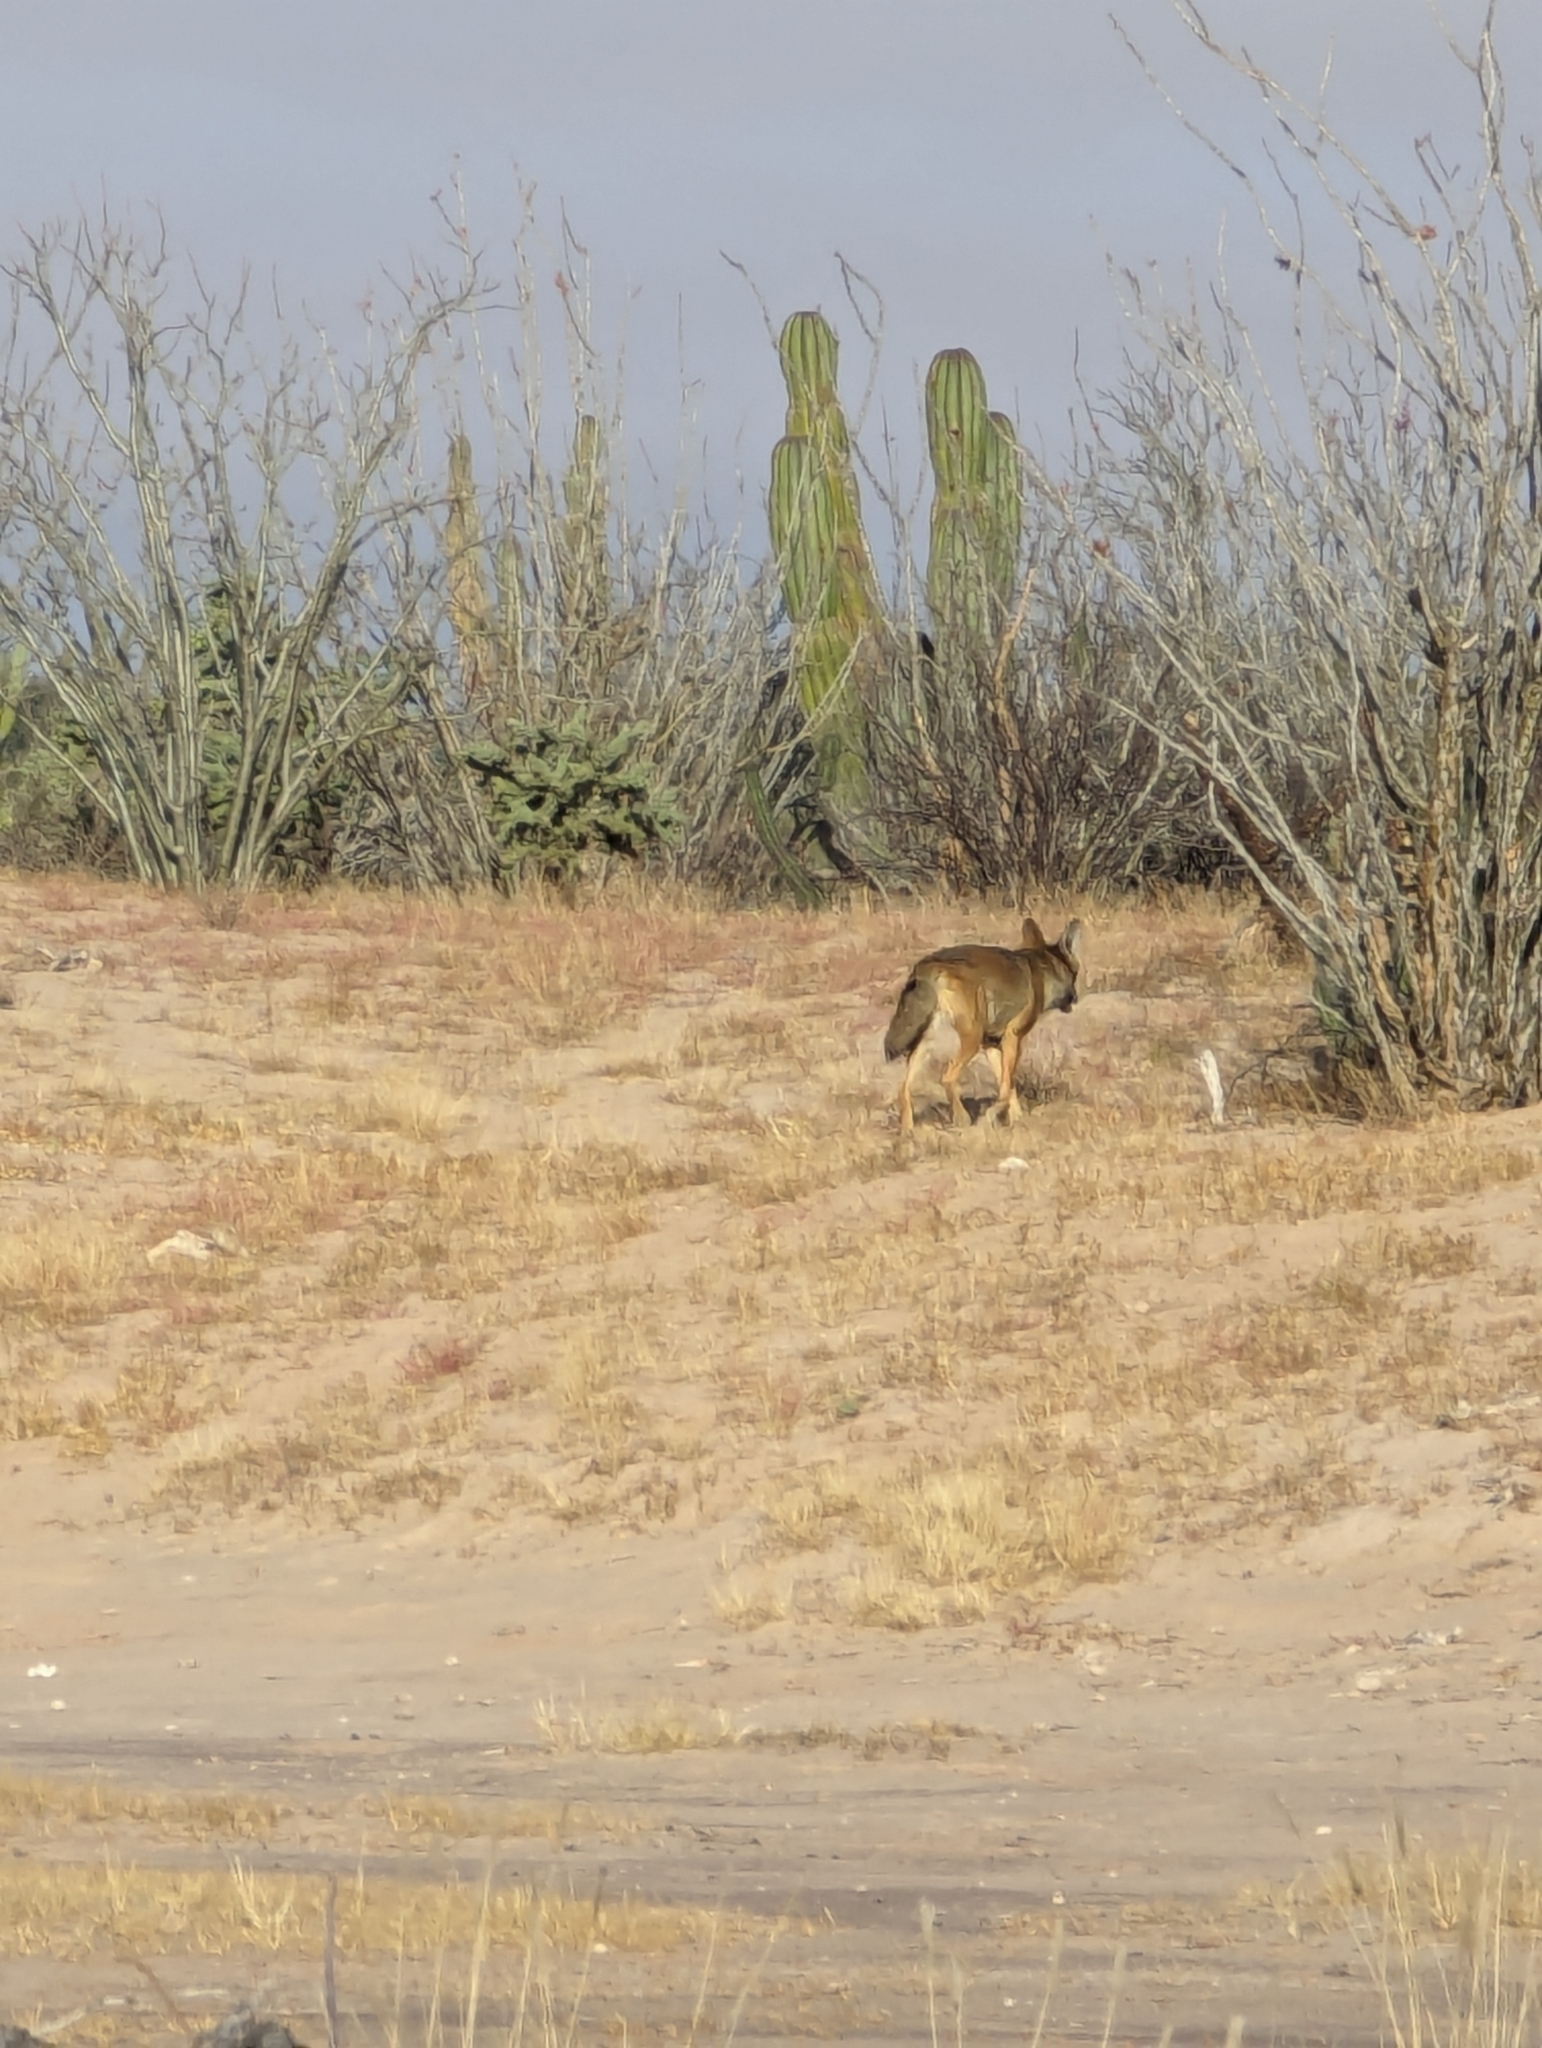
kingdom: Animalia
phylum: Chordata
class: Mammalia
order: Carnivora
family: Canidae
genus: Canis
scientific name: Canis latrans
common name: Coyote
